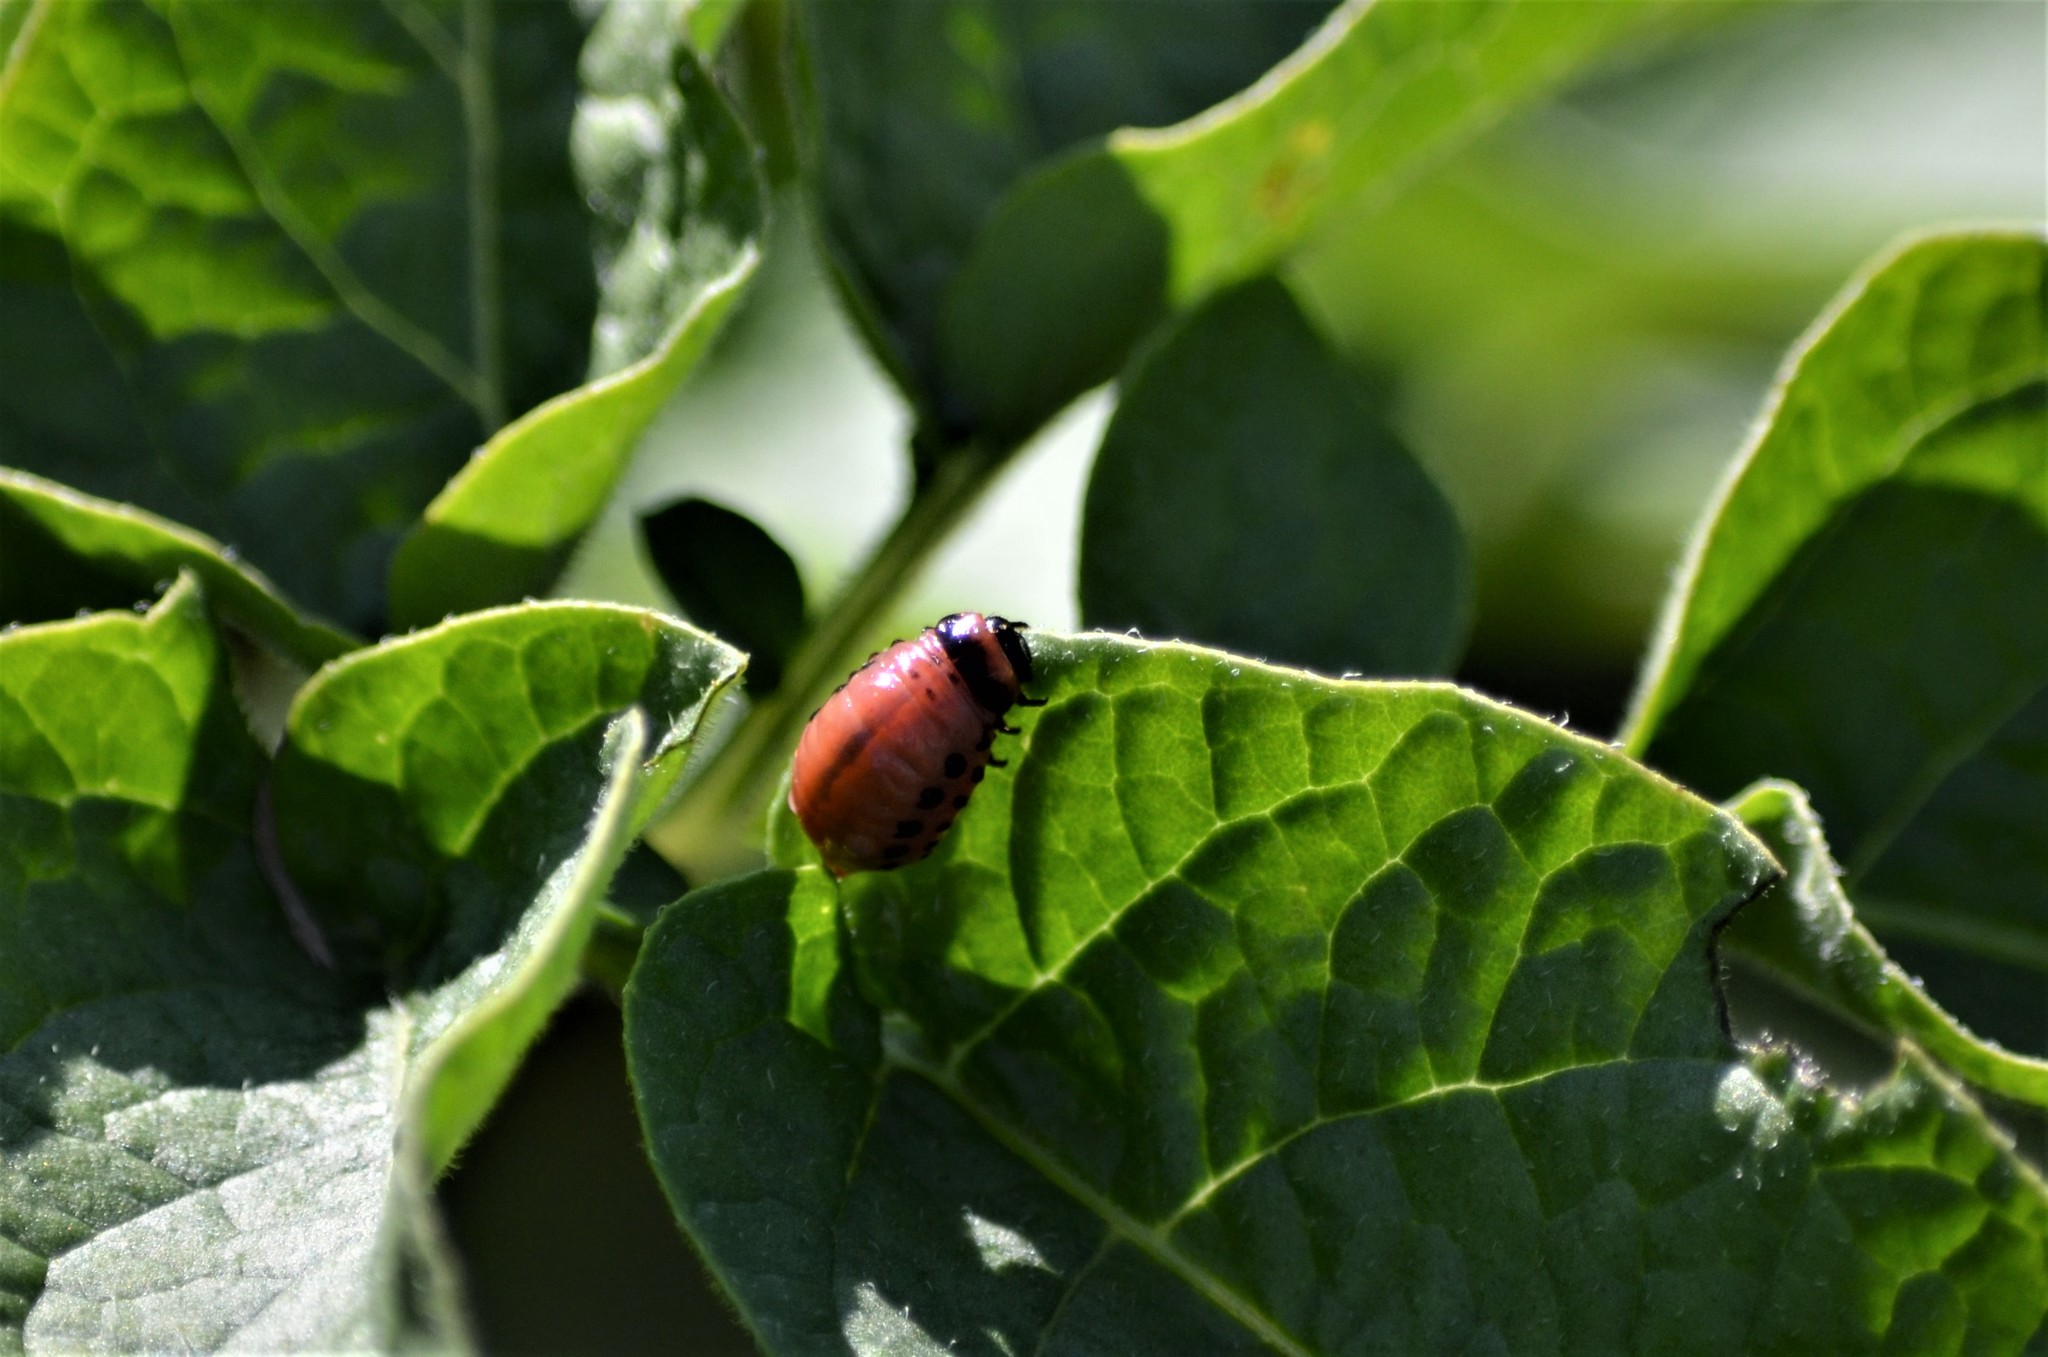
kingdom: Animalia
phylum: Arthropoda
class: Insecta
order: Coleoptera
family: Chrysomelidae
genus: Leptinotarsa
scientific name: Leptinotarsa decemlineata
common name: Colorado potato beetle
